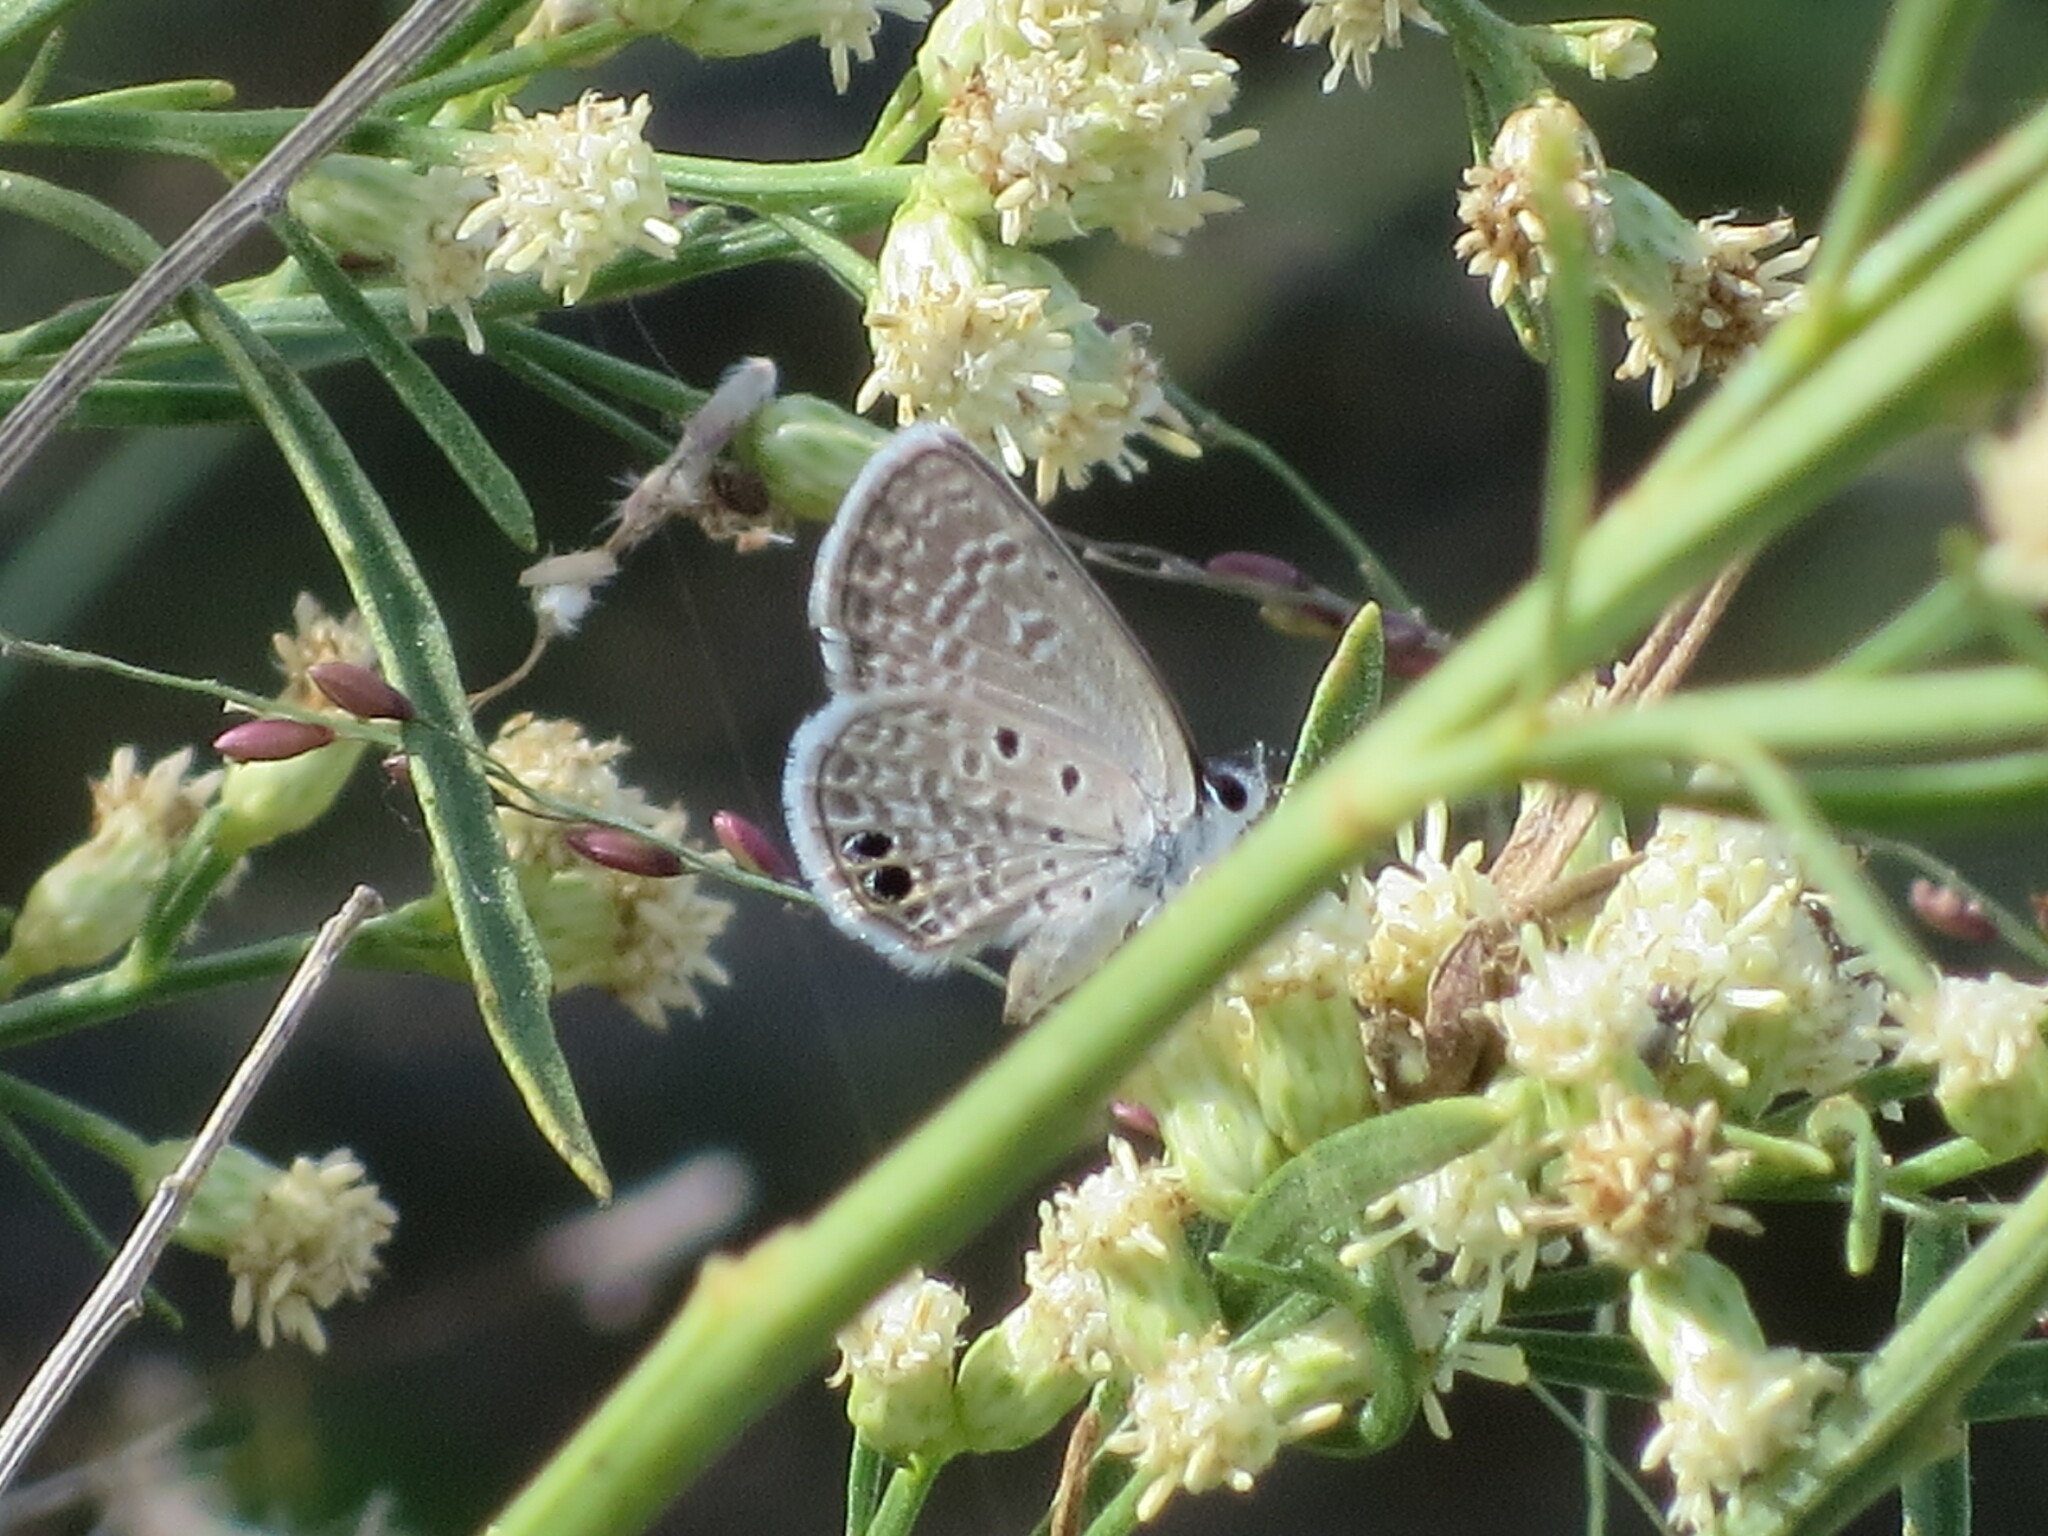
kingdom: Animalia
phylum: Arthropoda
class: Insecta
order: Lepidoptera
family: Lycaenidae
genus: Hemiargus
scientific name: Hemiargus ceraunus
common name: Ceraunus blue
